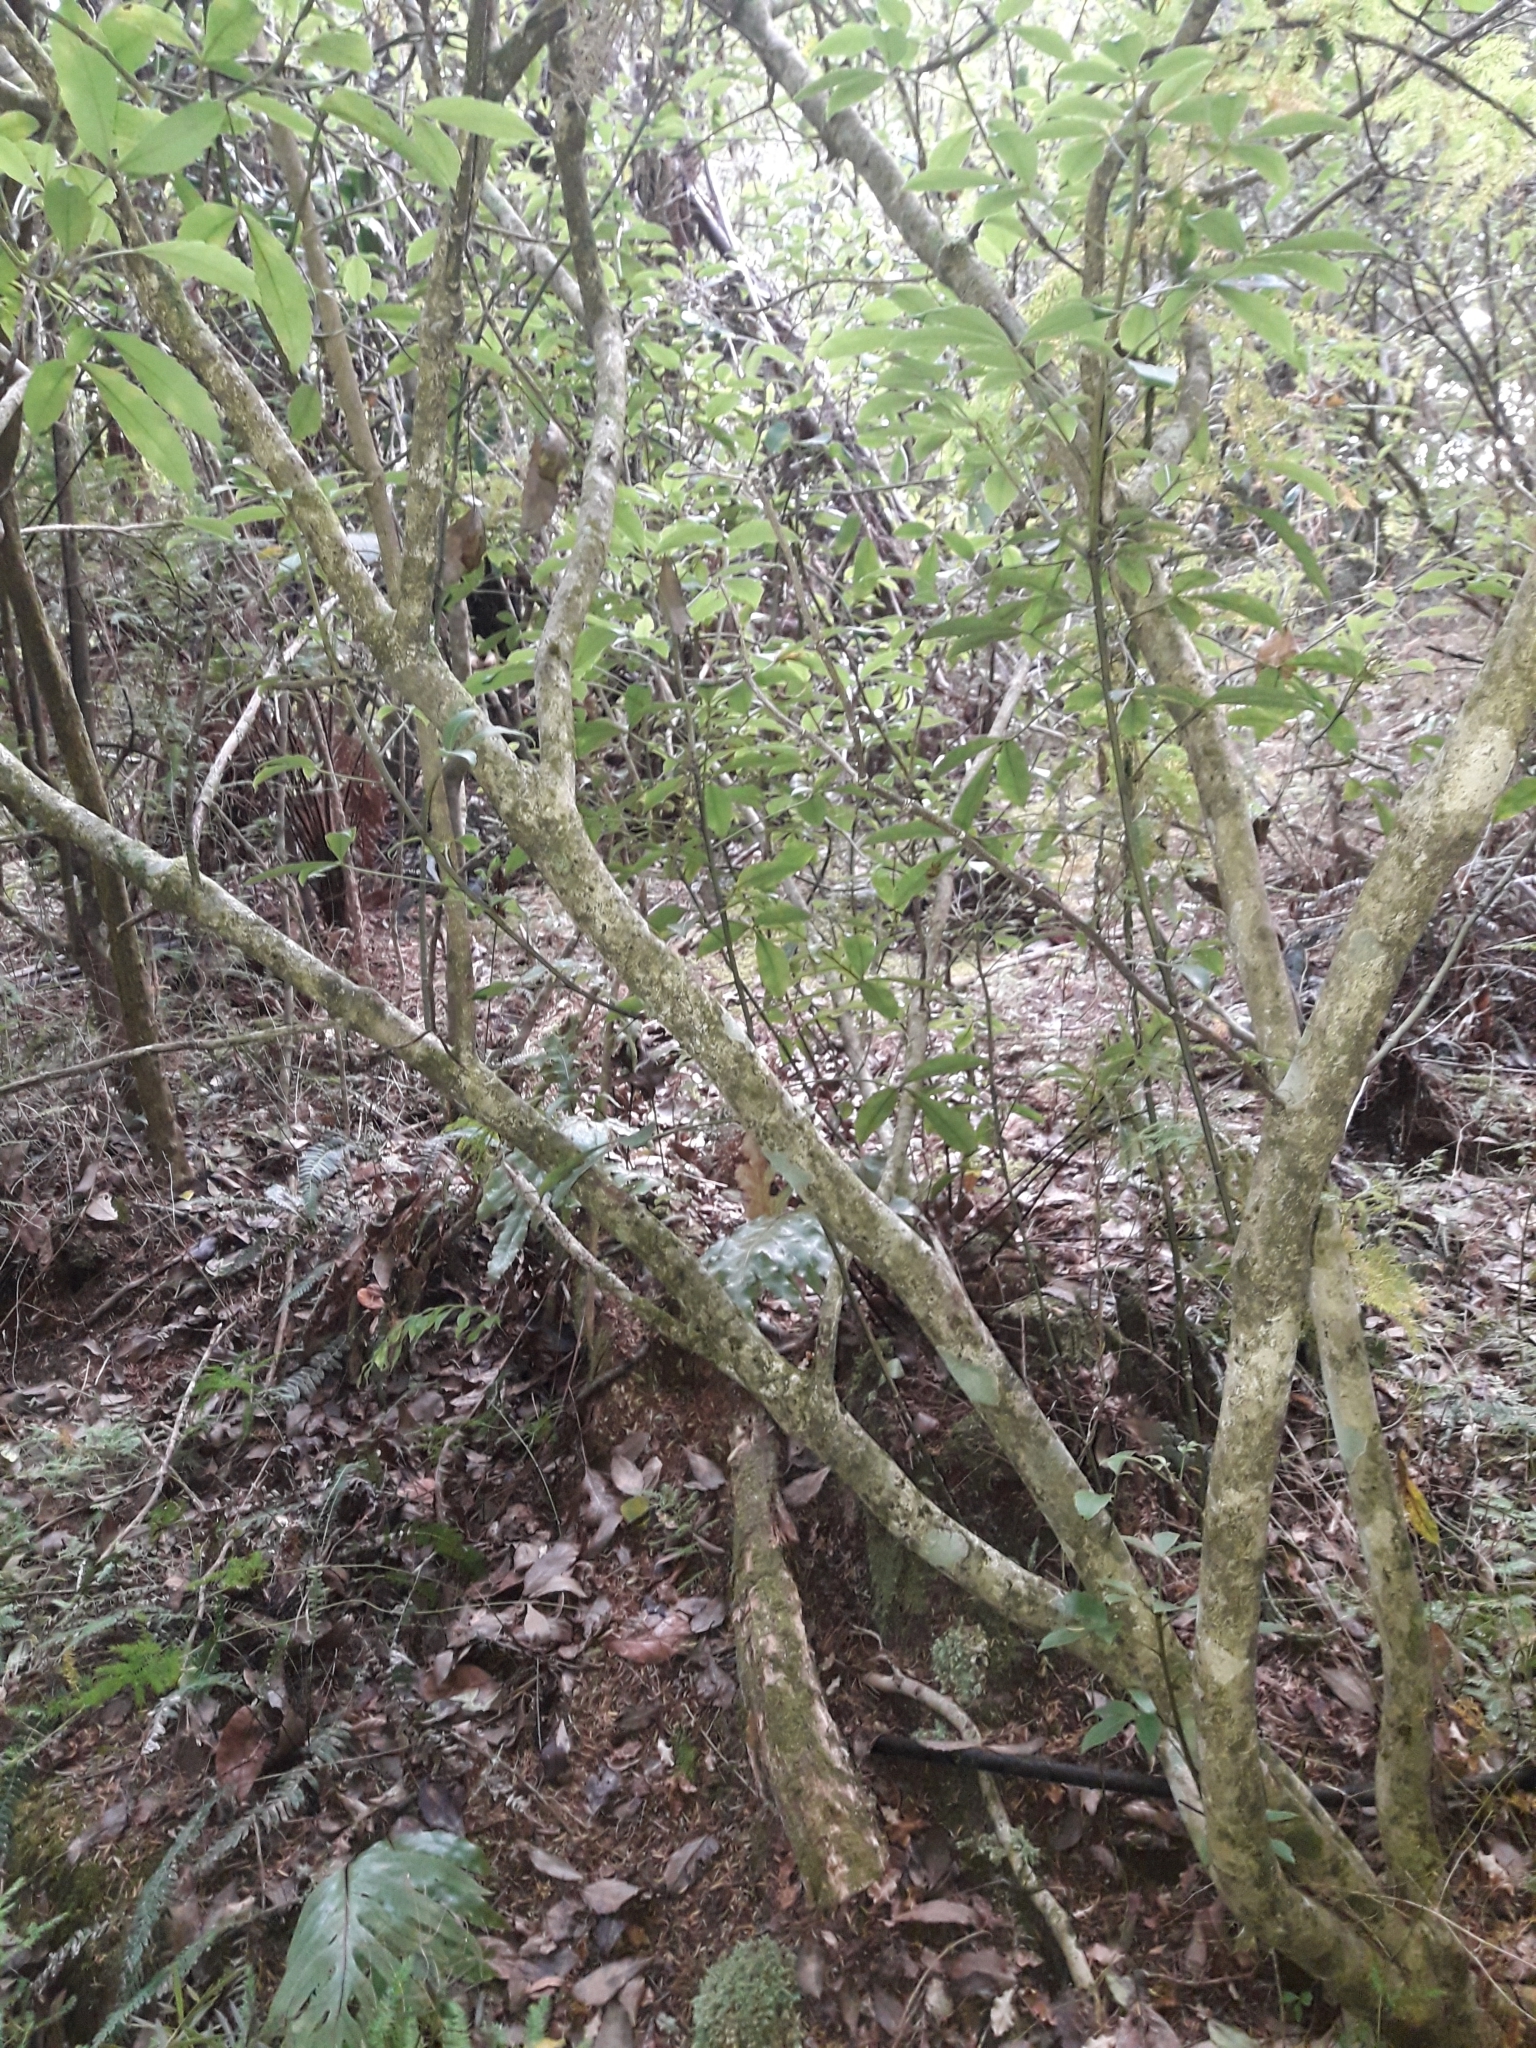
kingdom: Plantae
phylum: Tracheophyta
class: Magnoliopsida
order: Apiales
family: Araliaceae
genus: Pseudopanax
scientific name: Pseudopanax gilliesii
